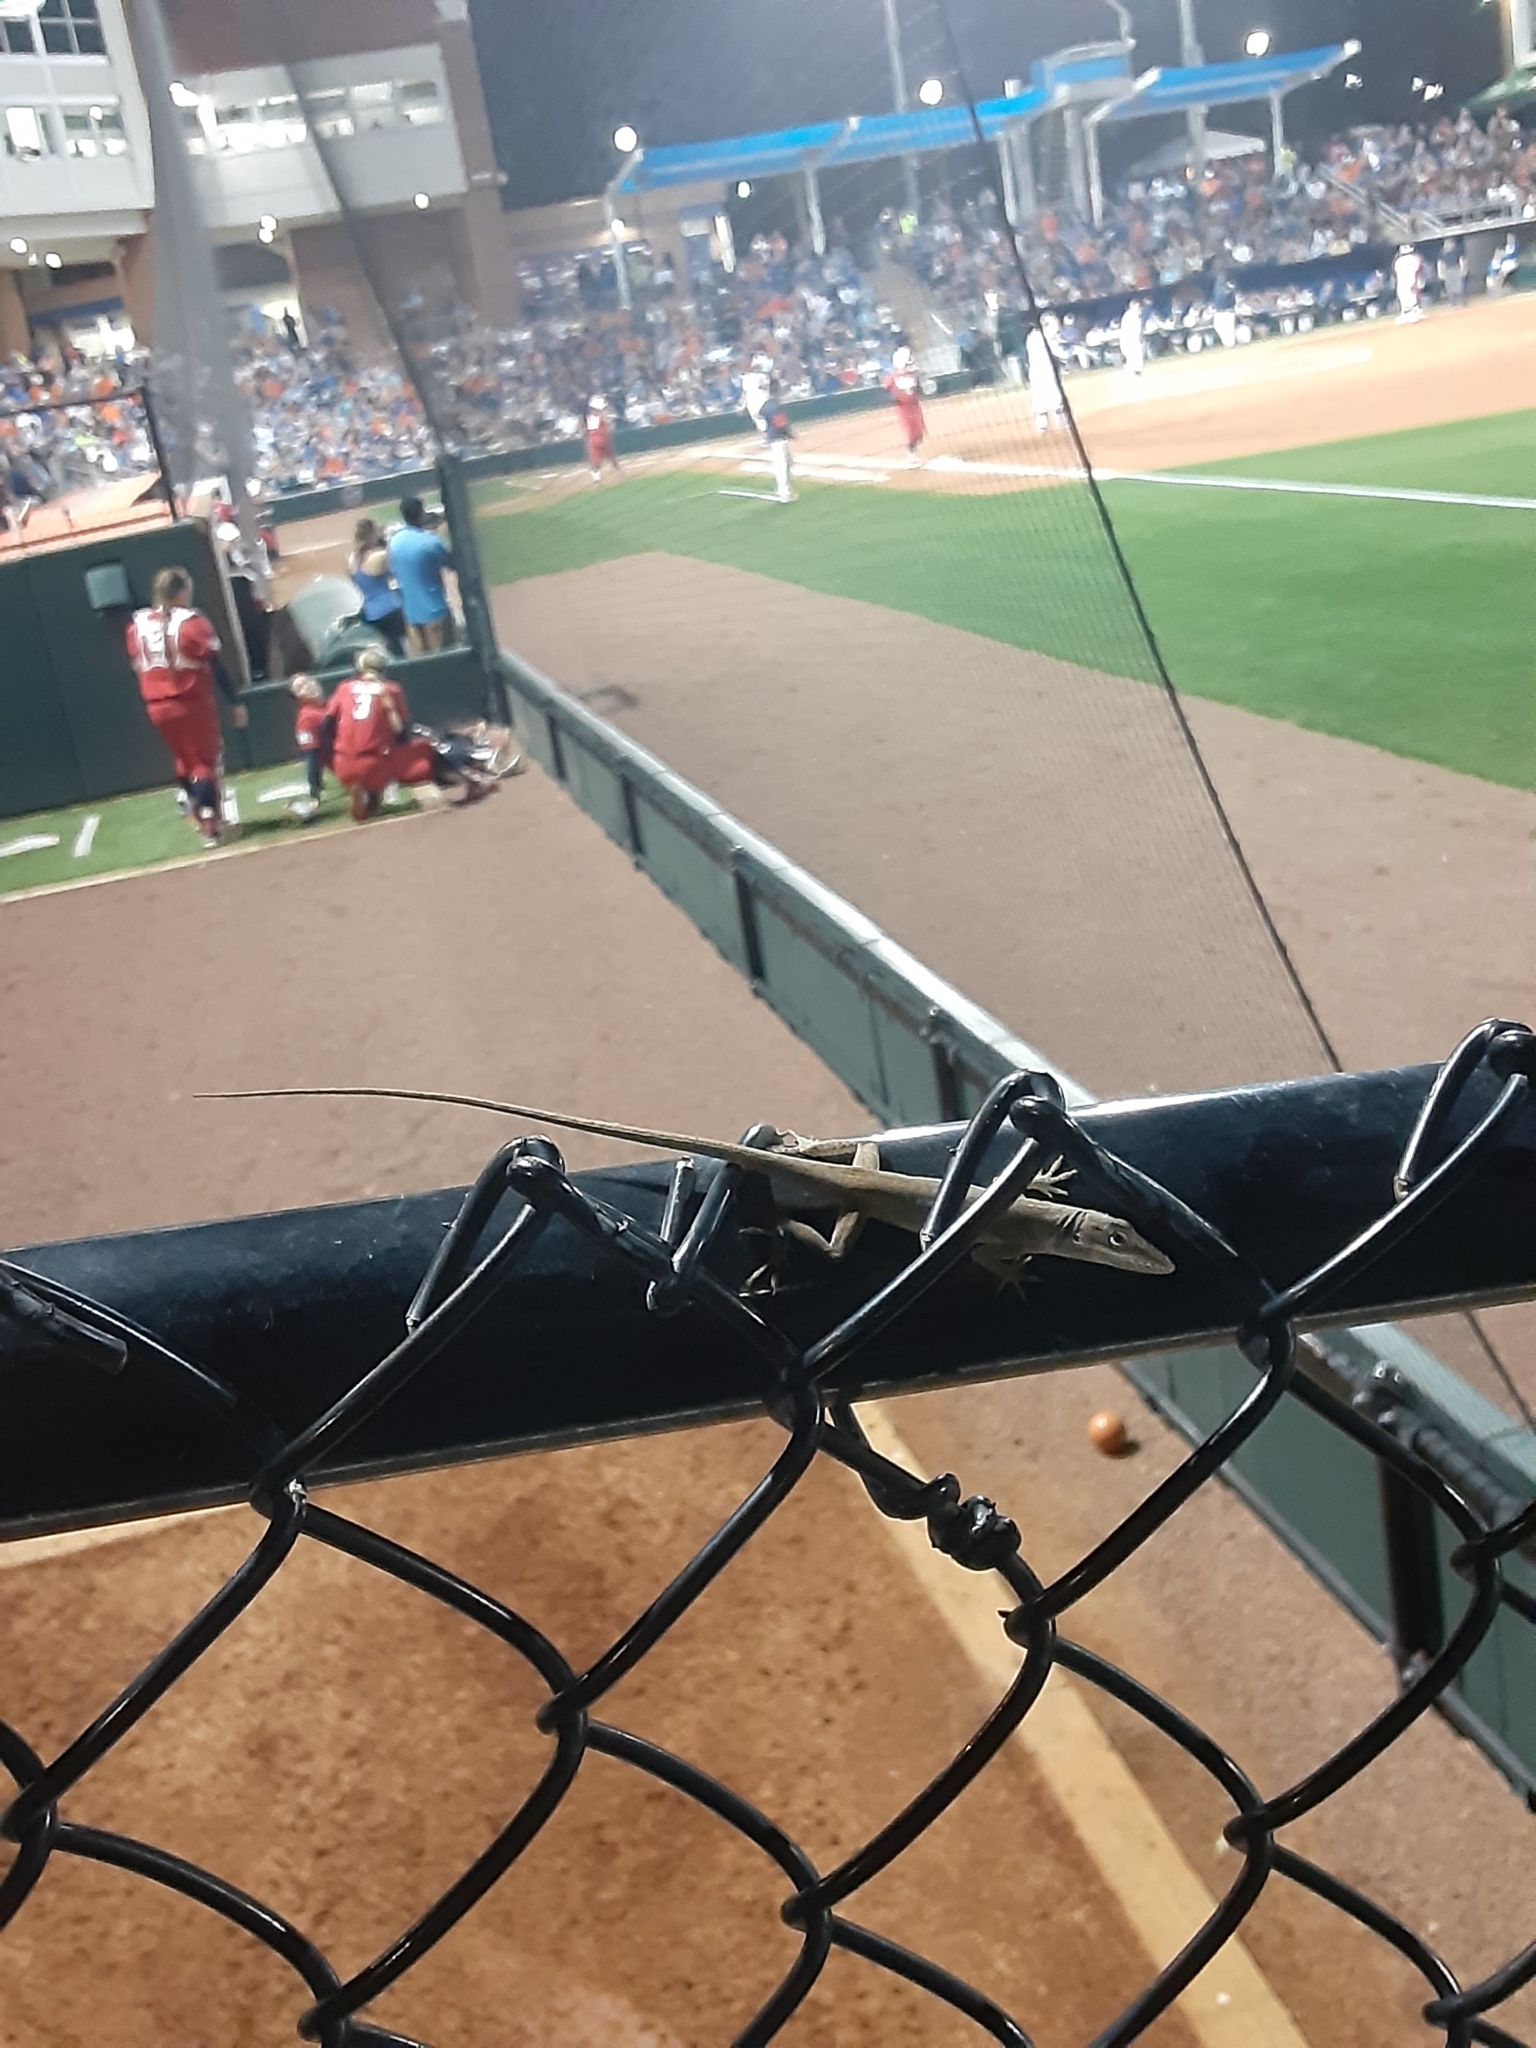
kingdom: Animalia
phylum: Chordata
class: Squamata
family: Dactyloidae
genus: Anolis
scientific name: Anolis carolinensis
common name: Green anole
